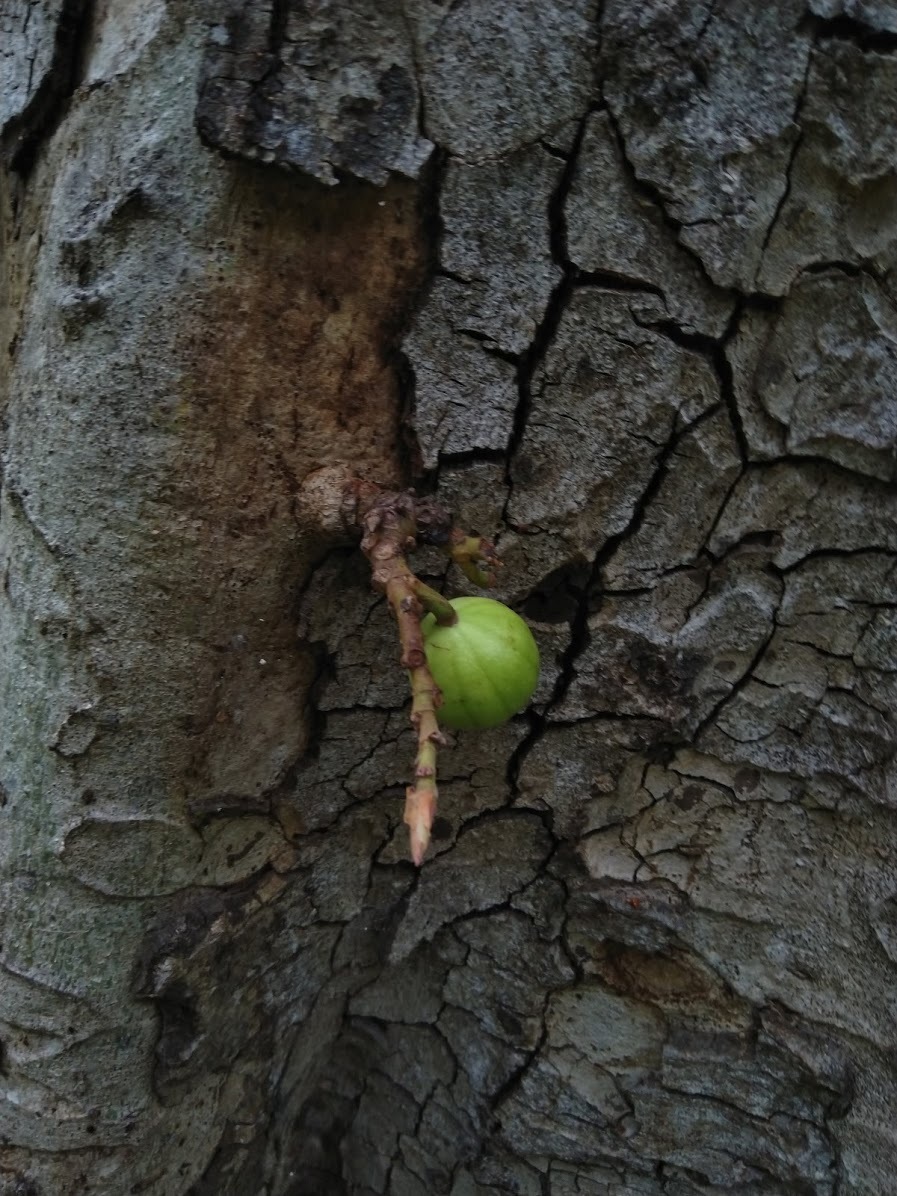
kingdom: Plantae
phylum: Tracheophyta
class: Magnoliopsida
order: Rosales
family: Moraceae
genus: Ficus
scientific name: Ficus racemosa
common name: Cluster fig
